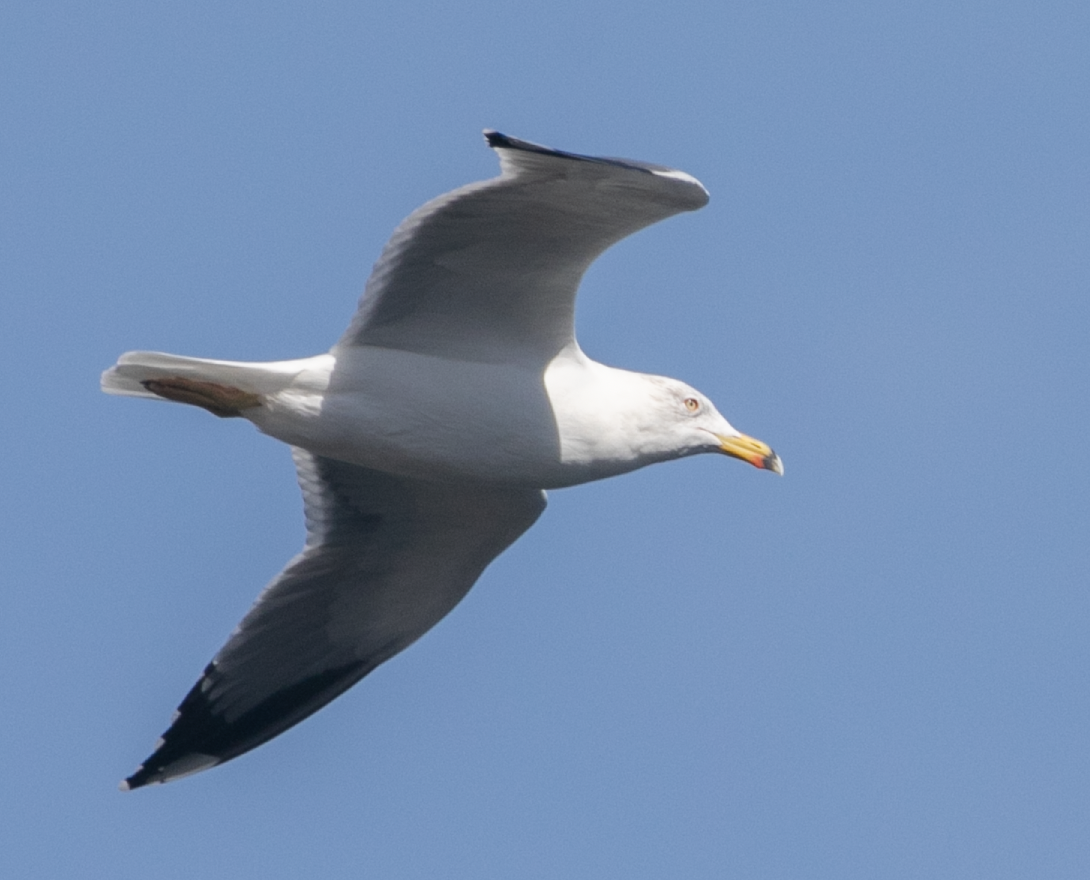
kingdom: Animalia
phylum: Chordata
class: Aves
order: Charadriiformes
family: Laridae
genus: Larus
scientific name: Larus michahellis
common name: Yellow-legged gull
